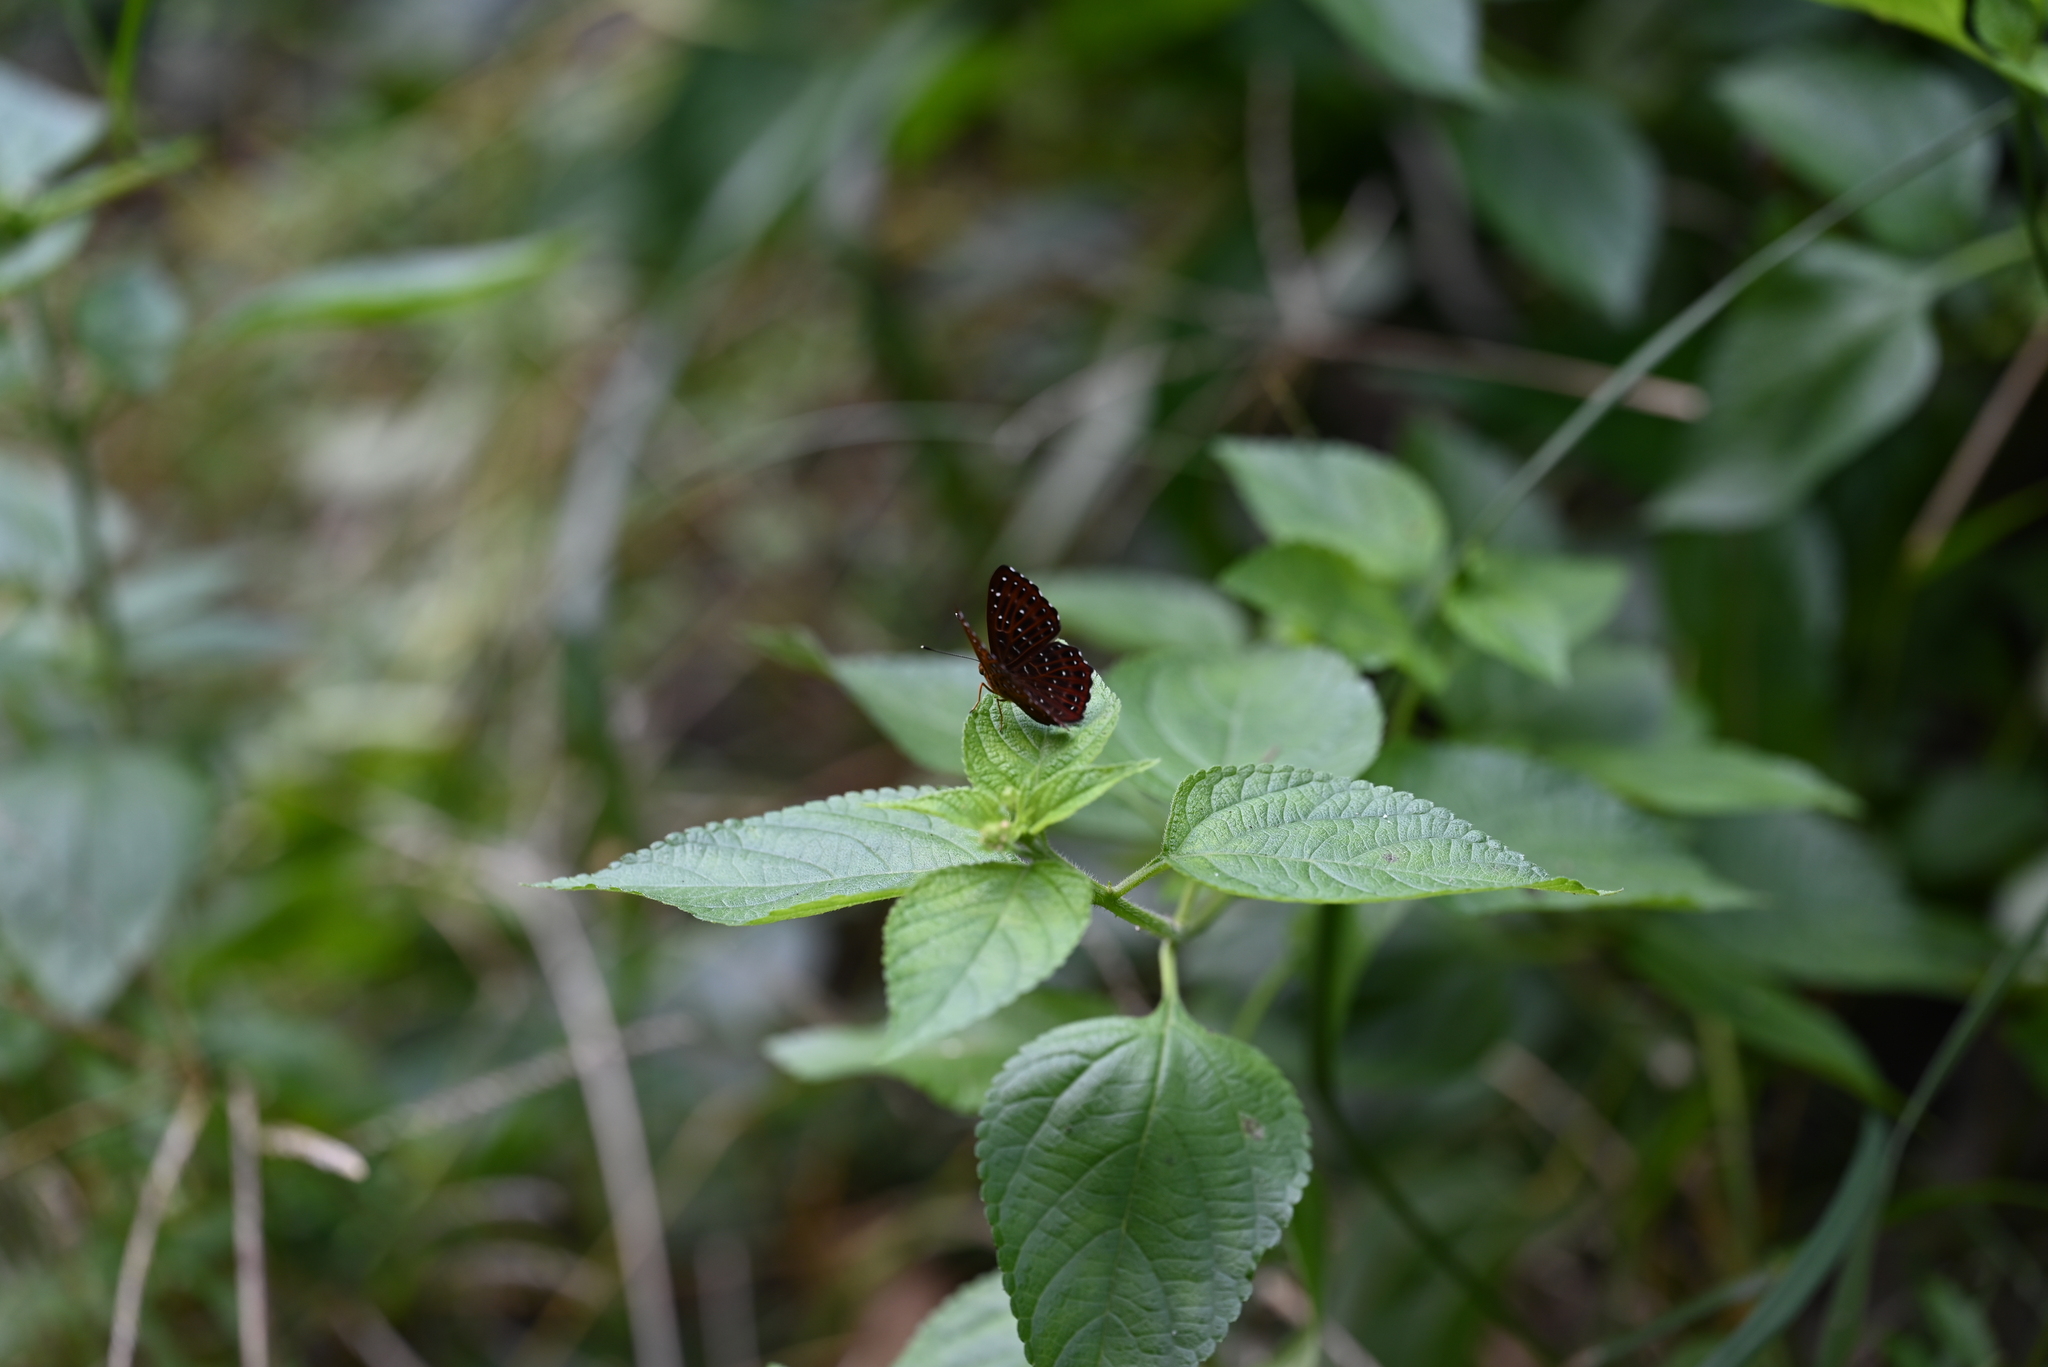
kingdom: Animalia
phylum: Arthropoda
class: Insecta
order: Lepidoptera
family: Riodinidae
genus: Zemeros
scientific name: Zemeros flegyas
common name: Punchinello
